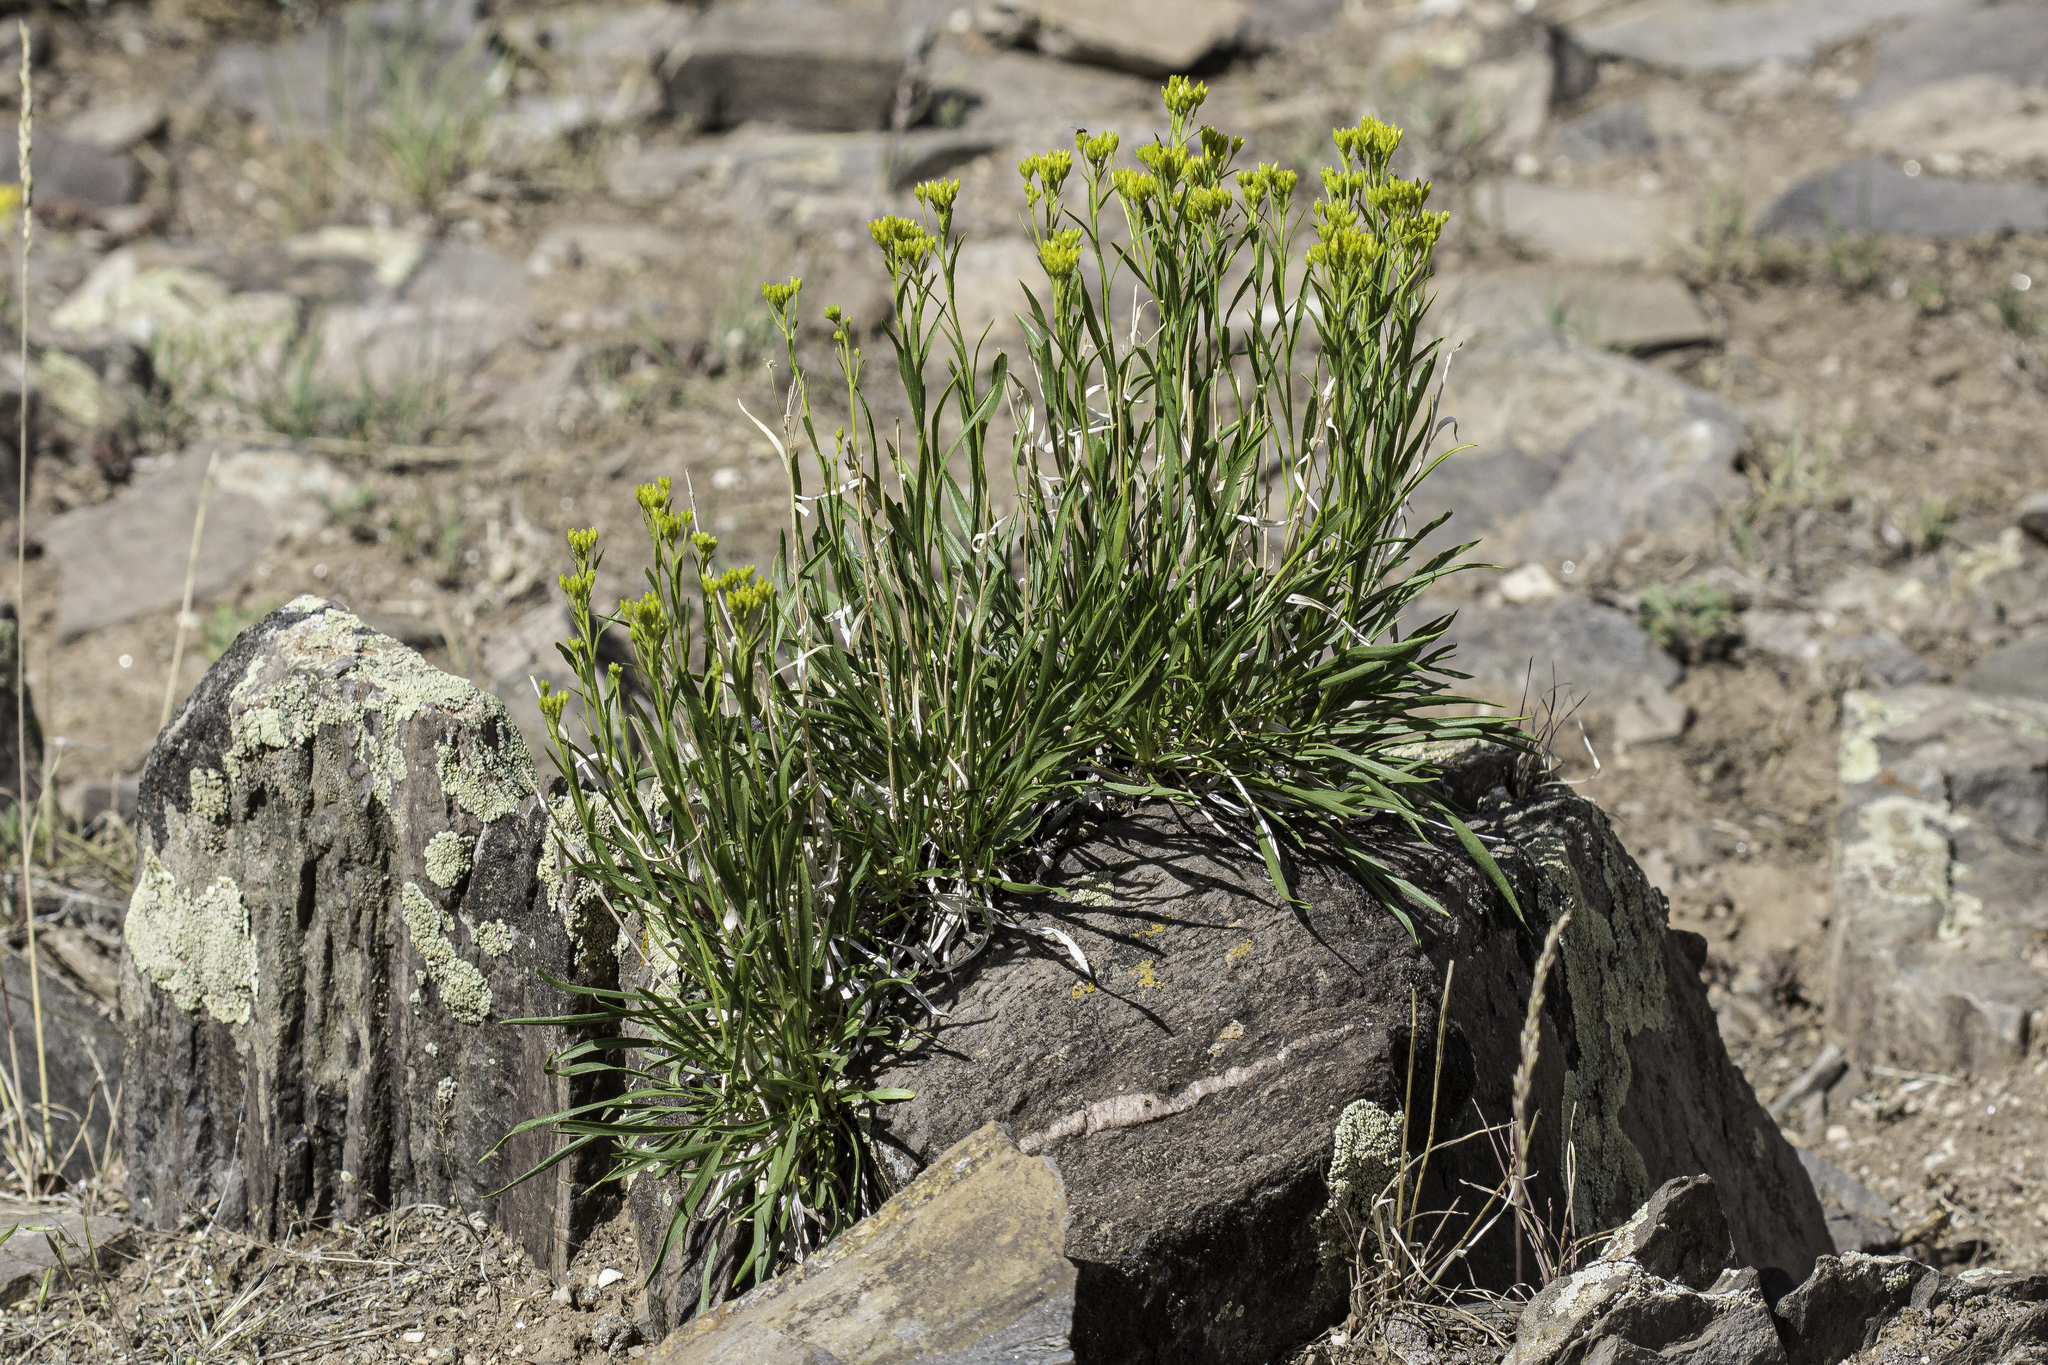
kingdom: Plantae
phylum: Tracheophyta
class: Magnoliopsida
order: Asterales
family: Asteraceae
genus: Petradoria
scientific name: Petradoria pumila
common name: Rock-goldenrod
